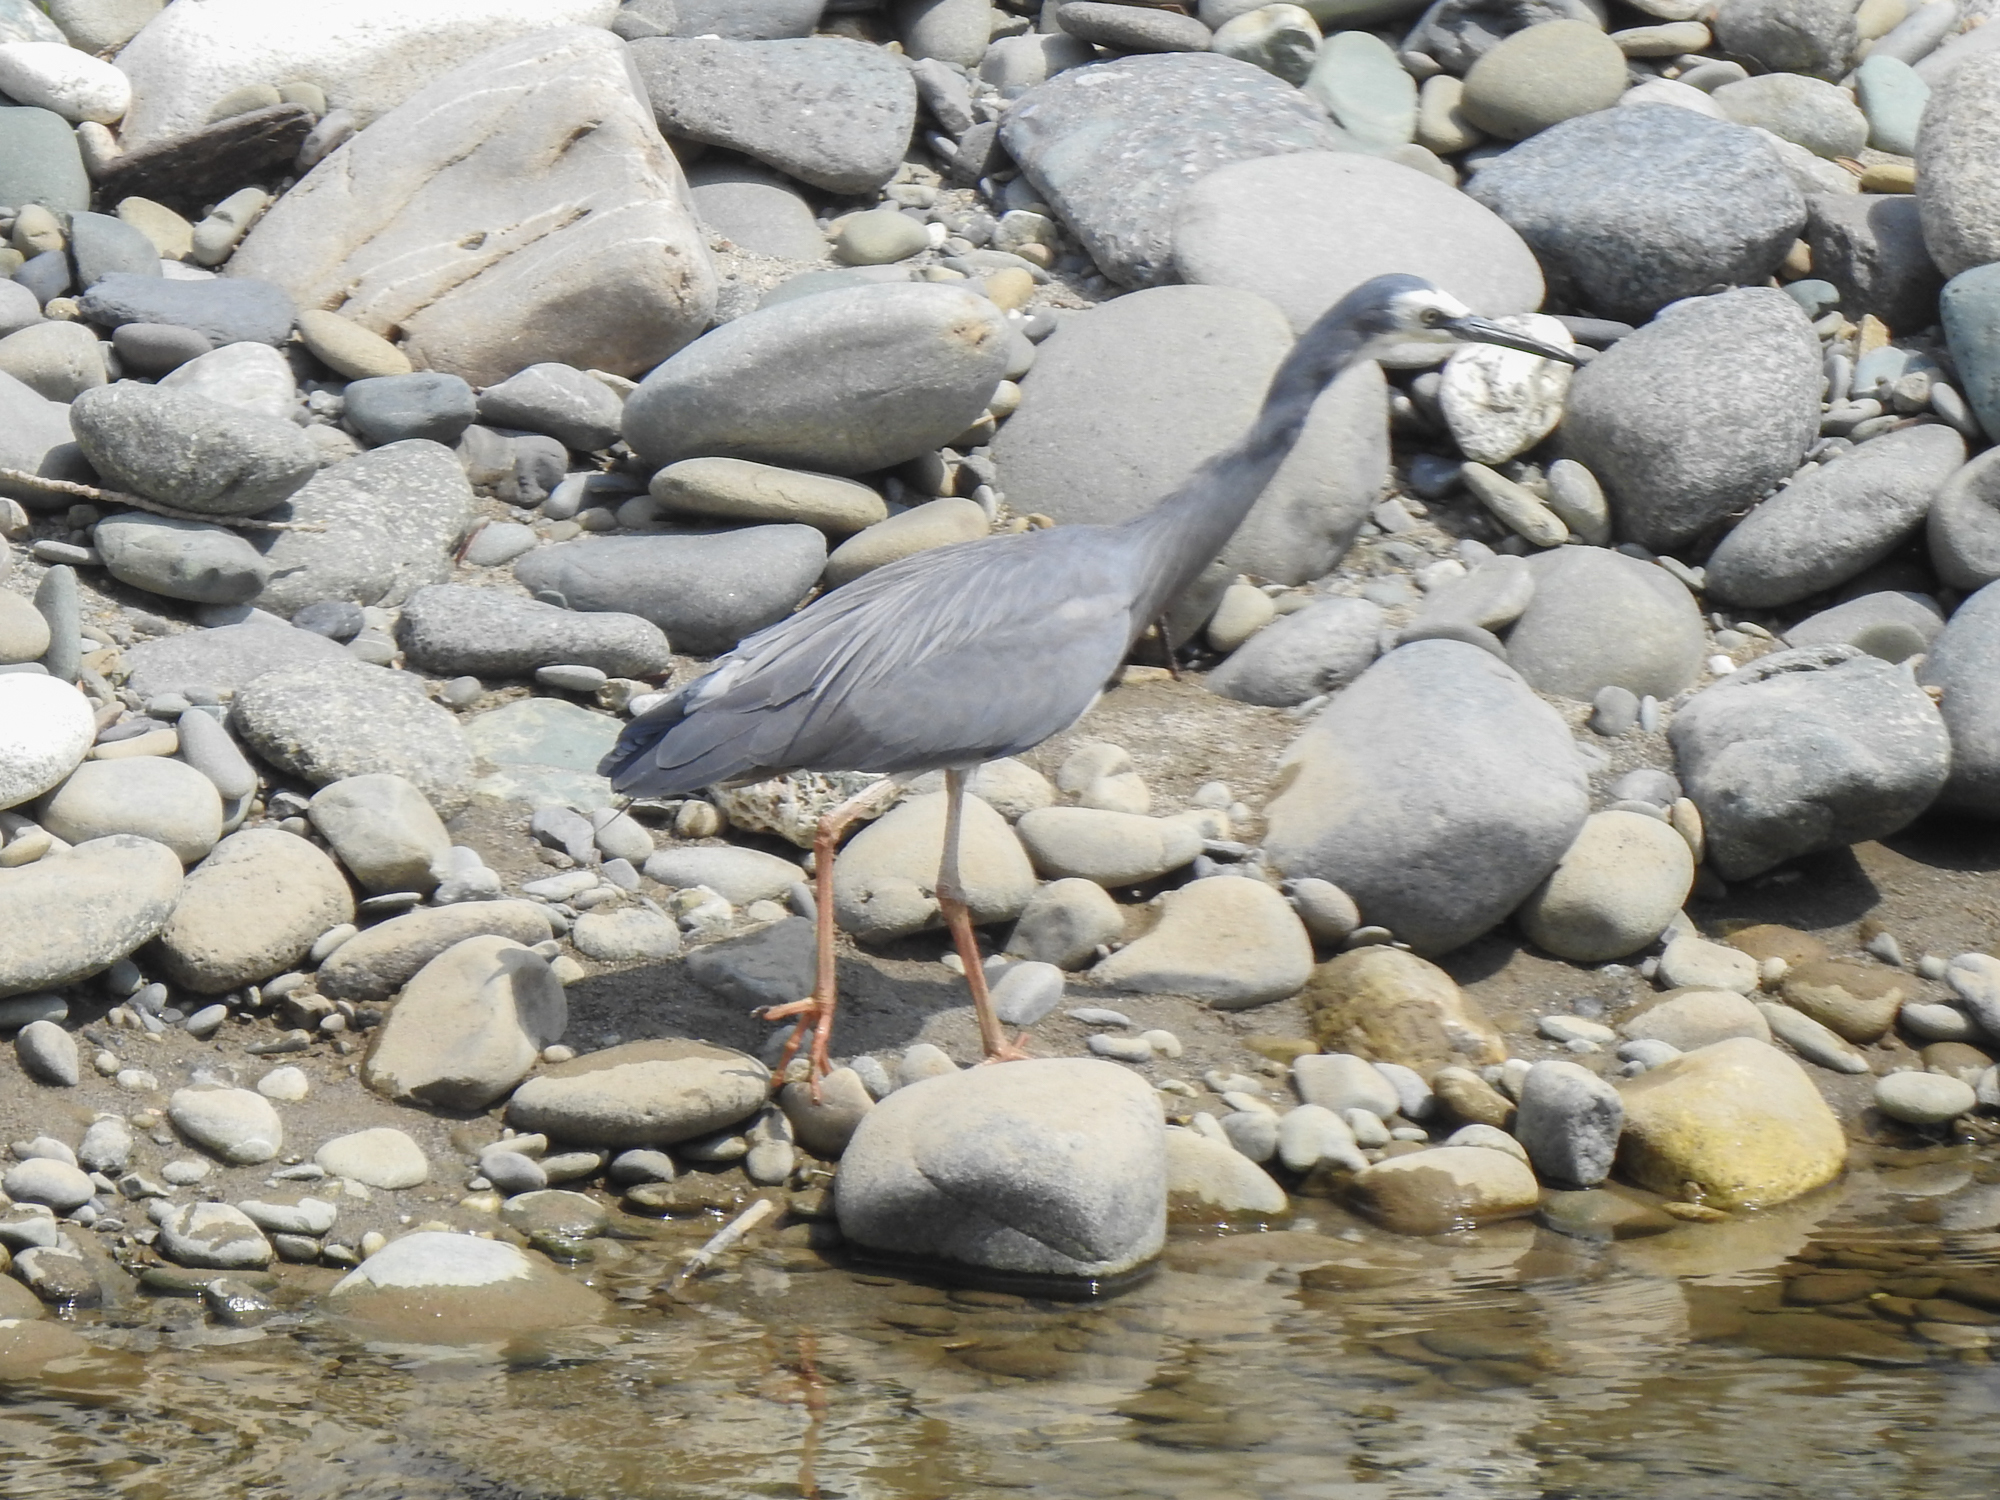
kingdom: Animalia
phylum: Chordata
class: Aves
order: Pelecaniformes
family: Ardeidae
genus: Egretta
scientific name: Egretta novaehollandiae
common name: White-faced heron
